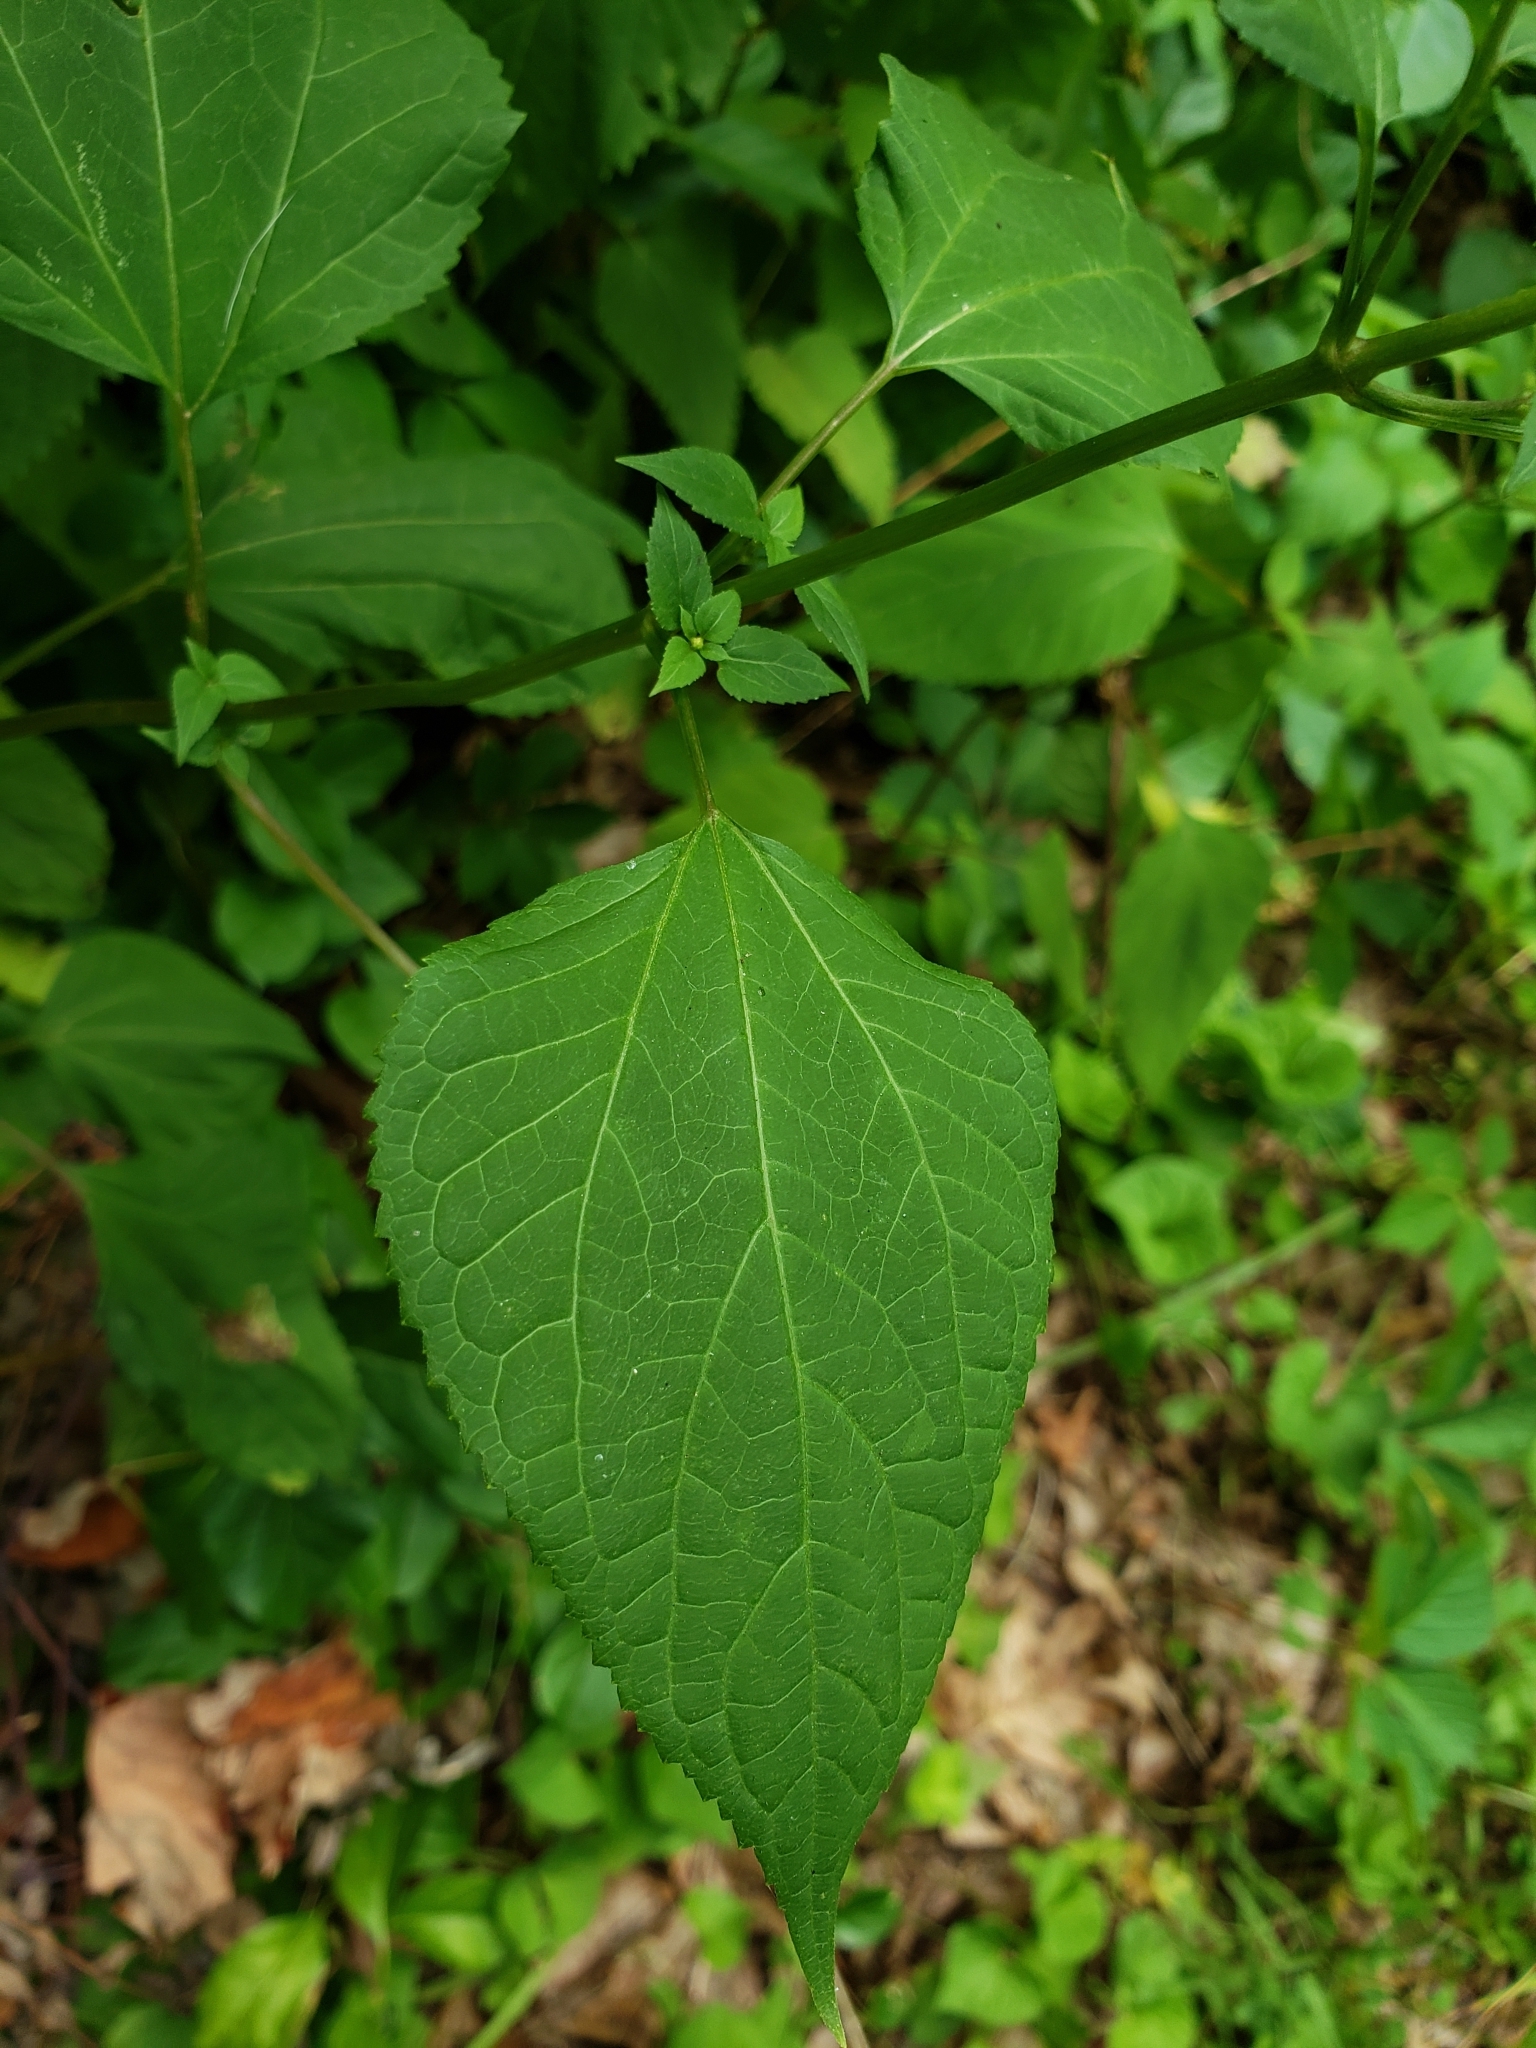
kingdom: Plantae
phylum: Tracheophyta
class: Magnoliopsida
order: Asterales
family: Asteraceae
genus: Ageratina
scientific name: Ageratina altissima
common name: White snakeroot
